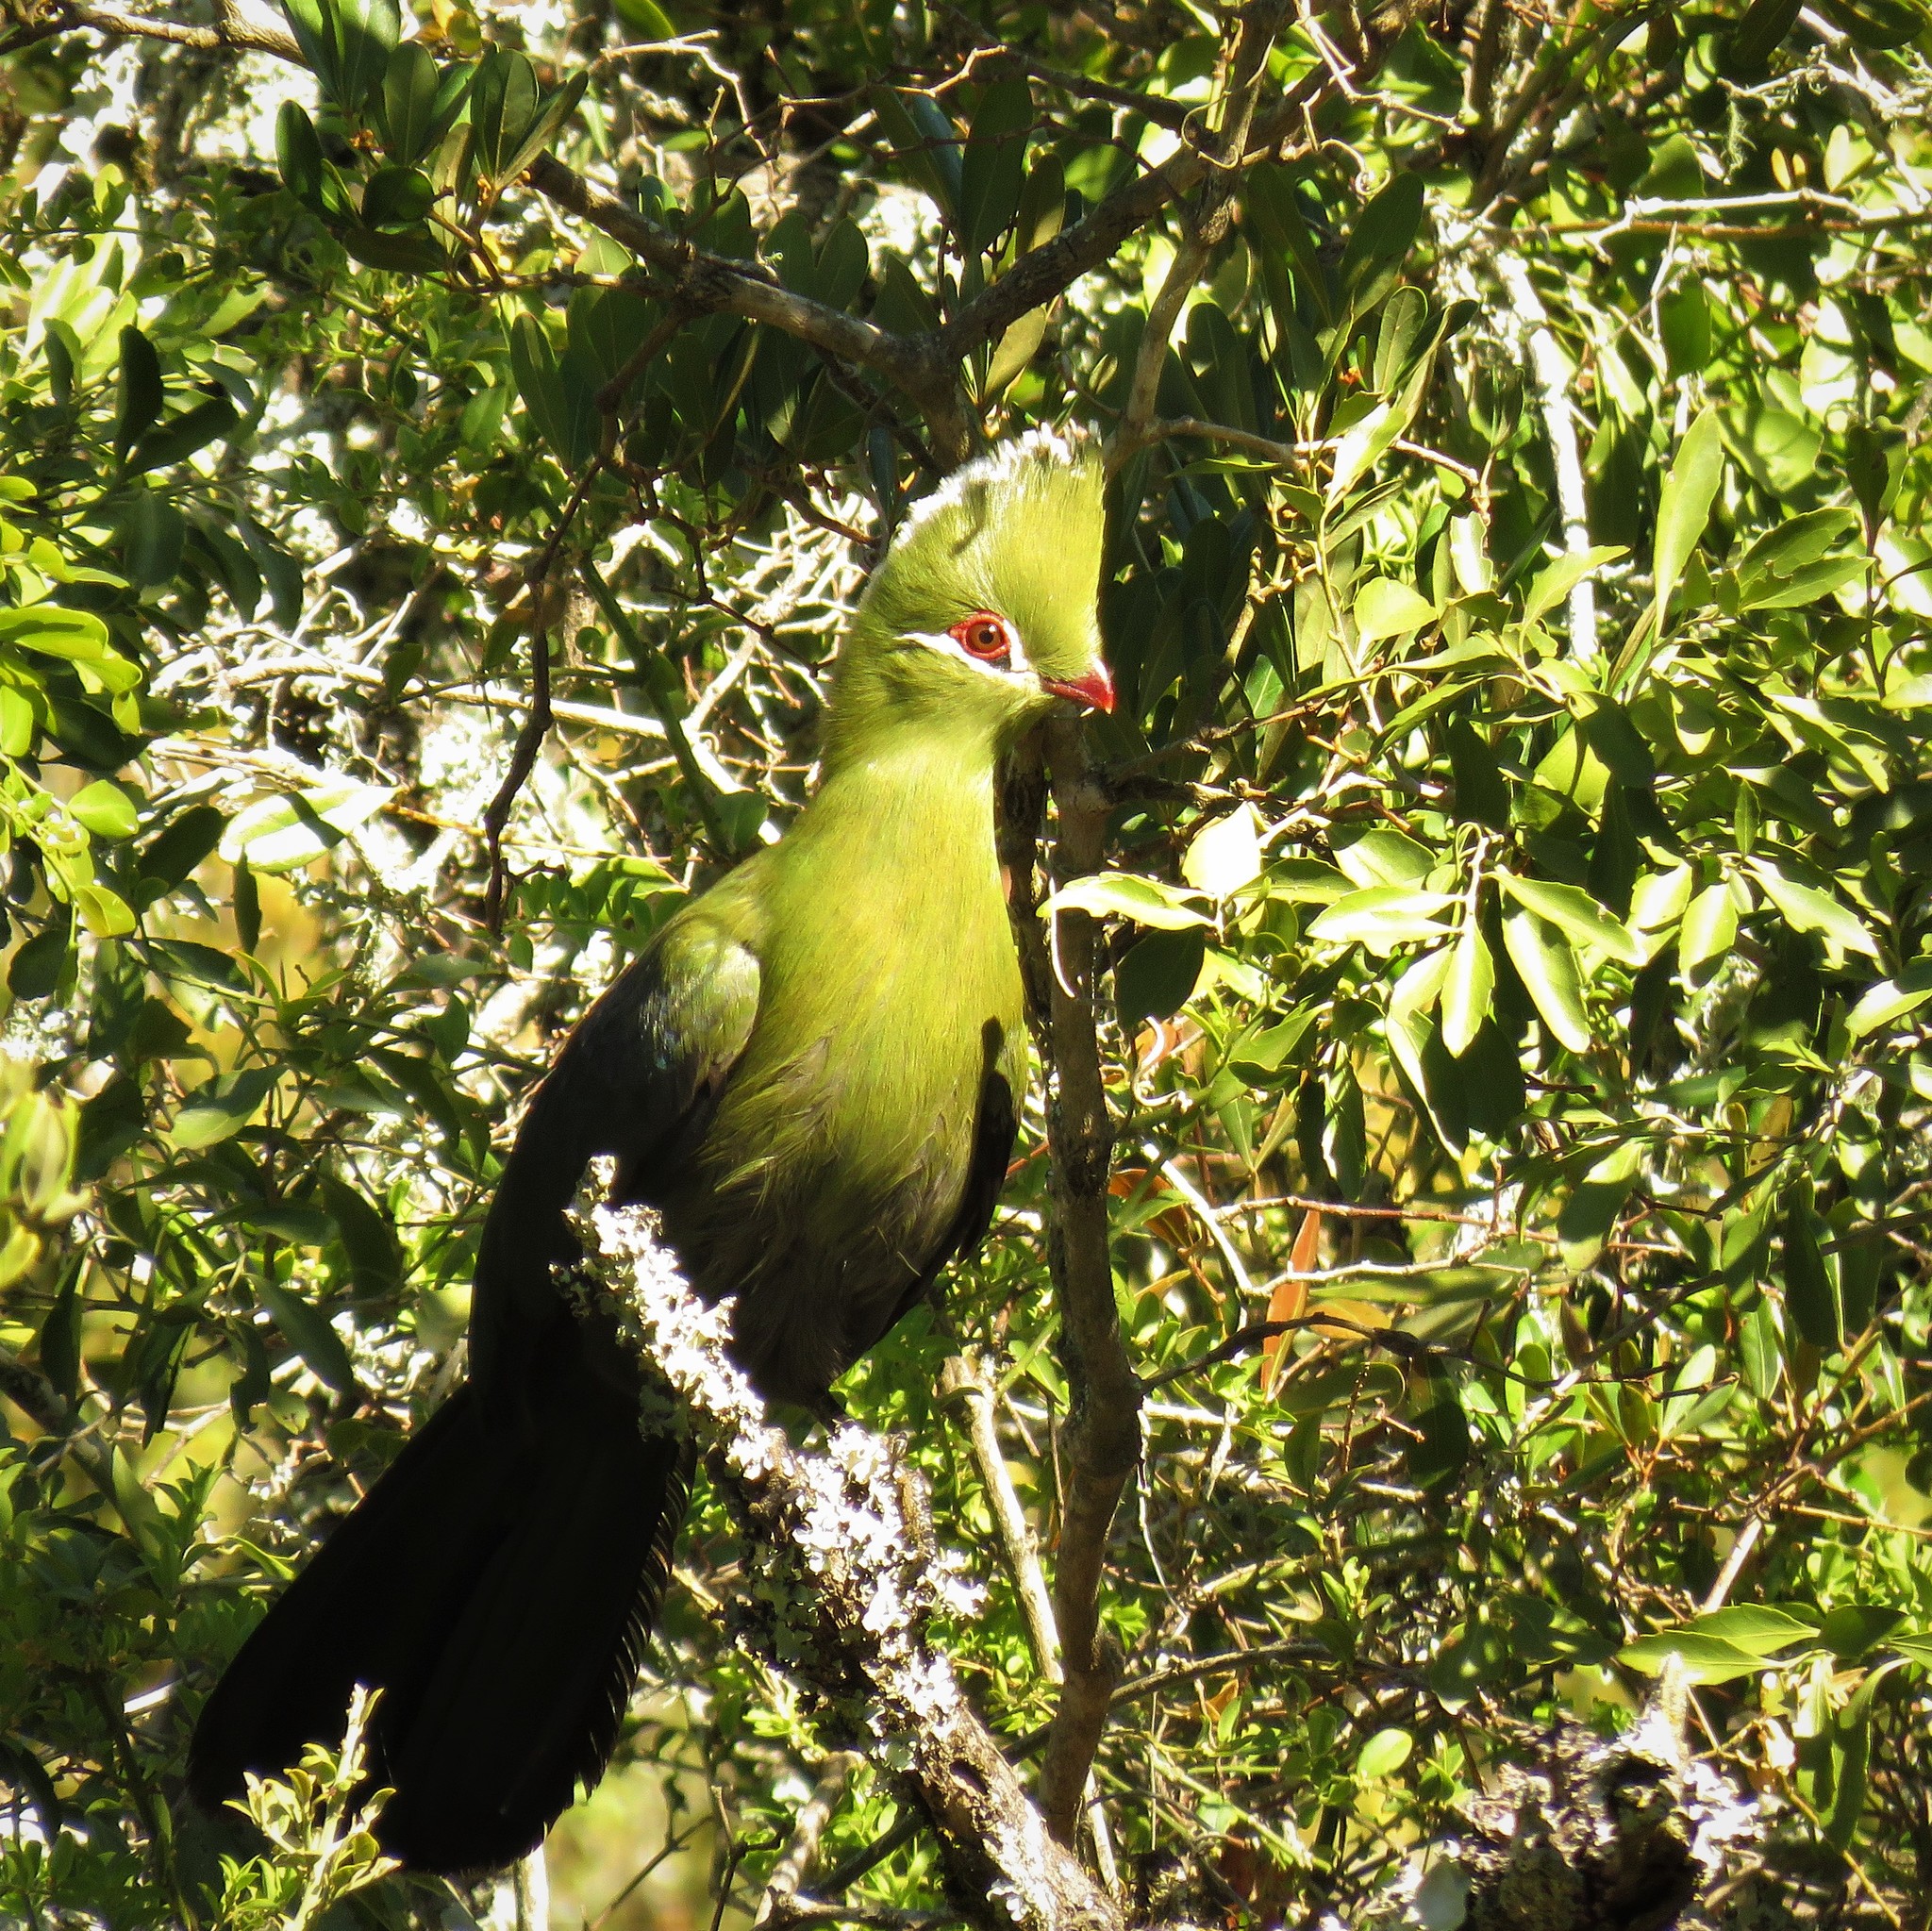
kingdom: Animalia
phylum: Chordata
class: Aves
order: Musophagiformes
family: Musophagidae
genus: Tauraco
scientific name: Tauraco corythaix
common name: Knysna turaco
